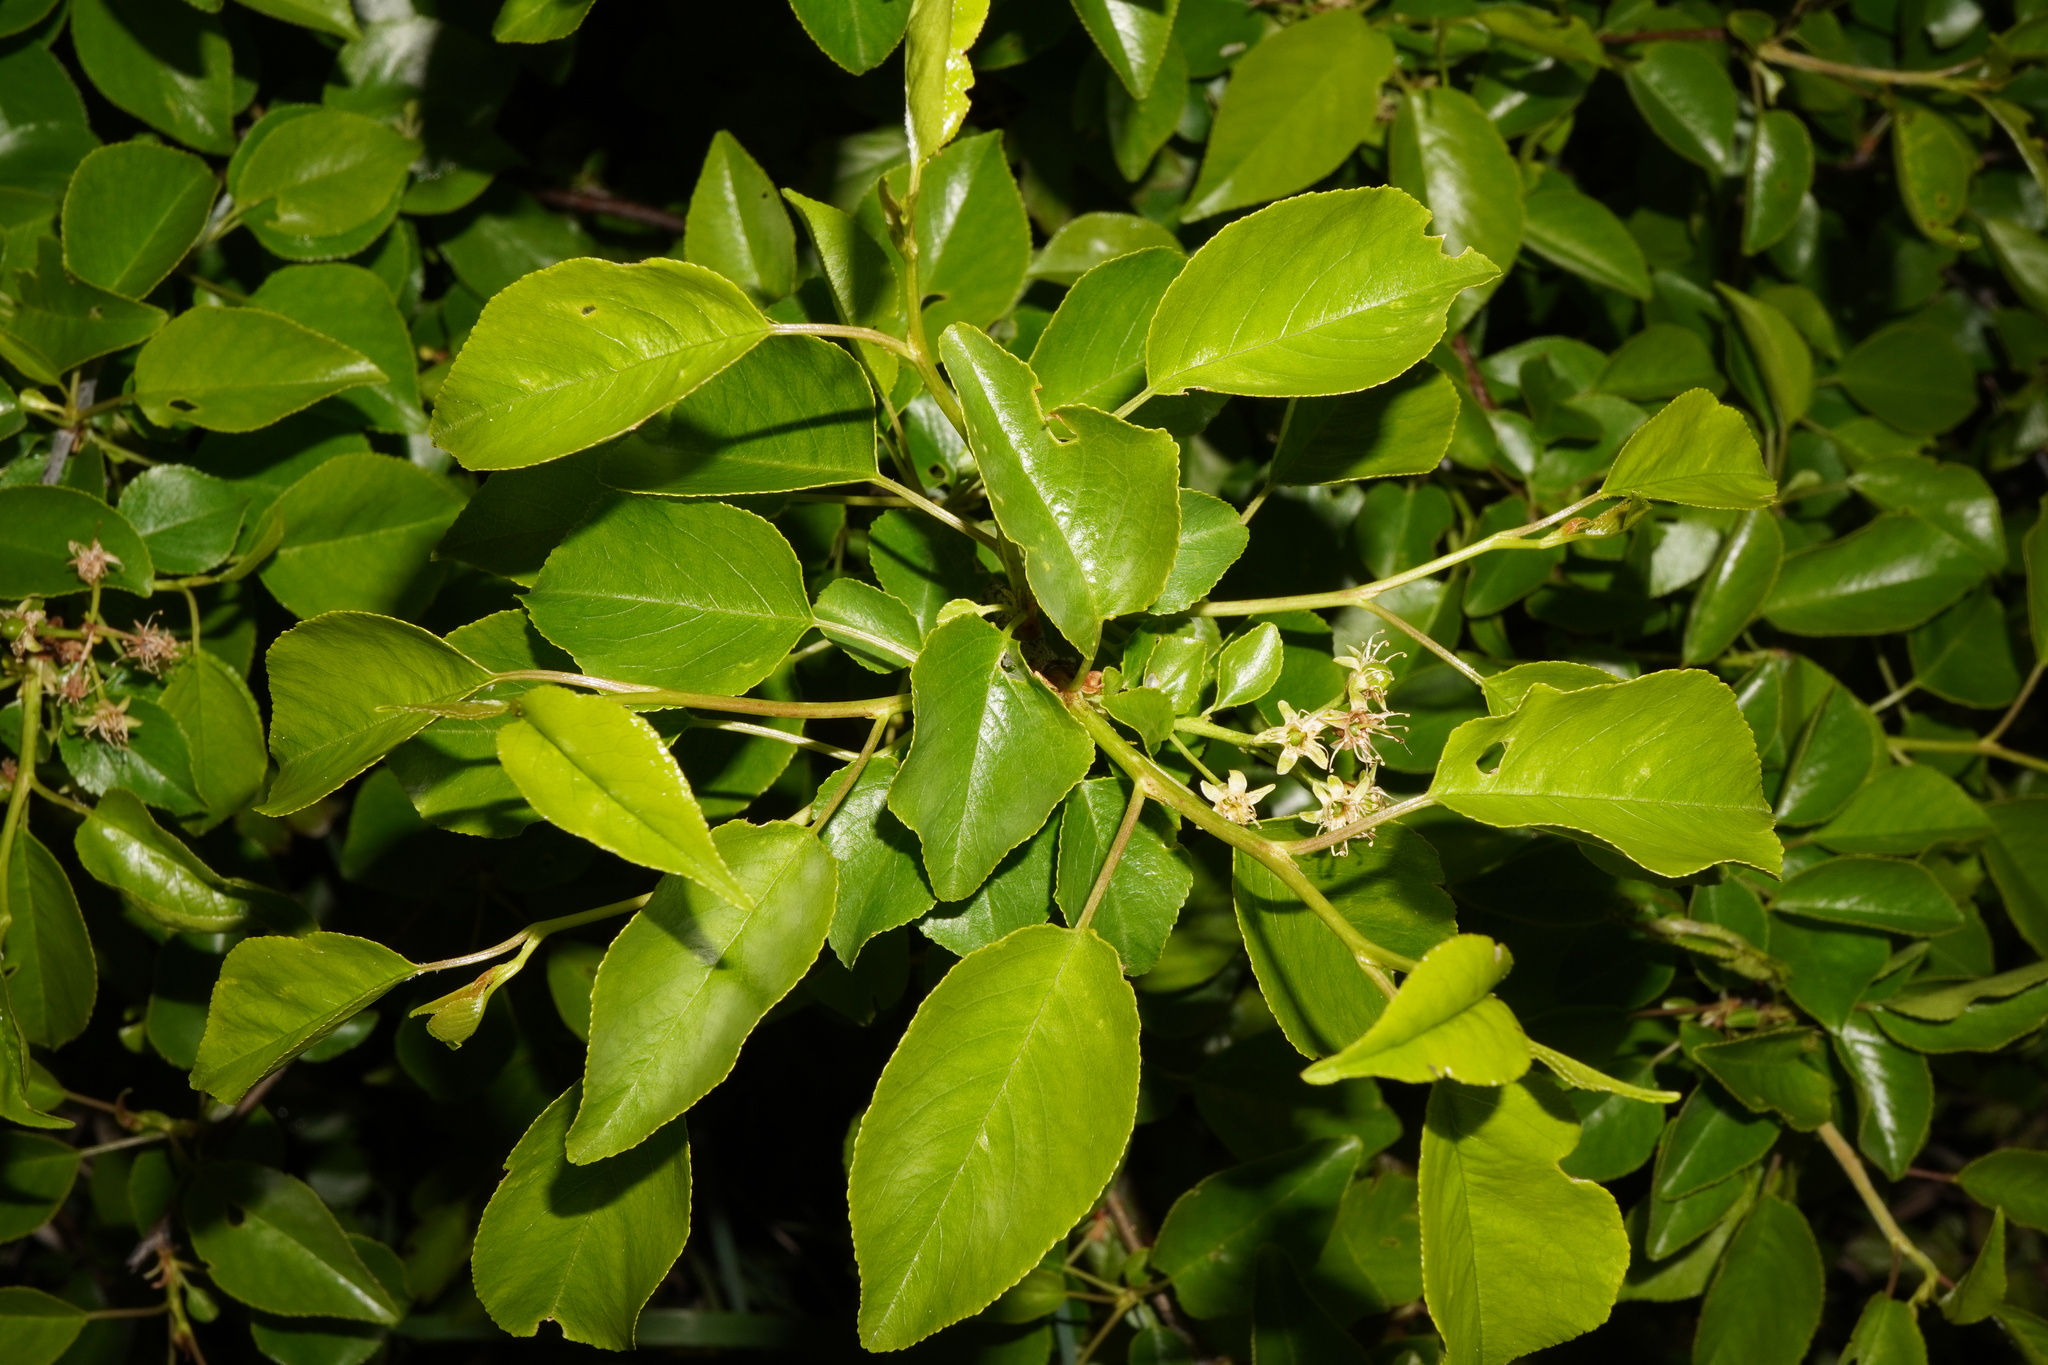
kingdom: Plantae
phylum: Tracheophyta
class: Magnoliopsida
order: Rosales
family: Rosaceae
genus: Prunus
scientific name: Prunus mahaleb
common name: Mahaleb cherry
